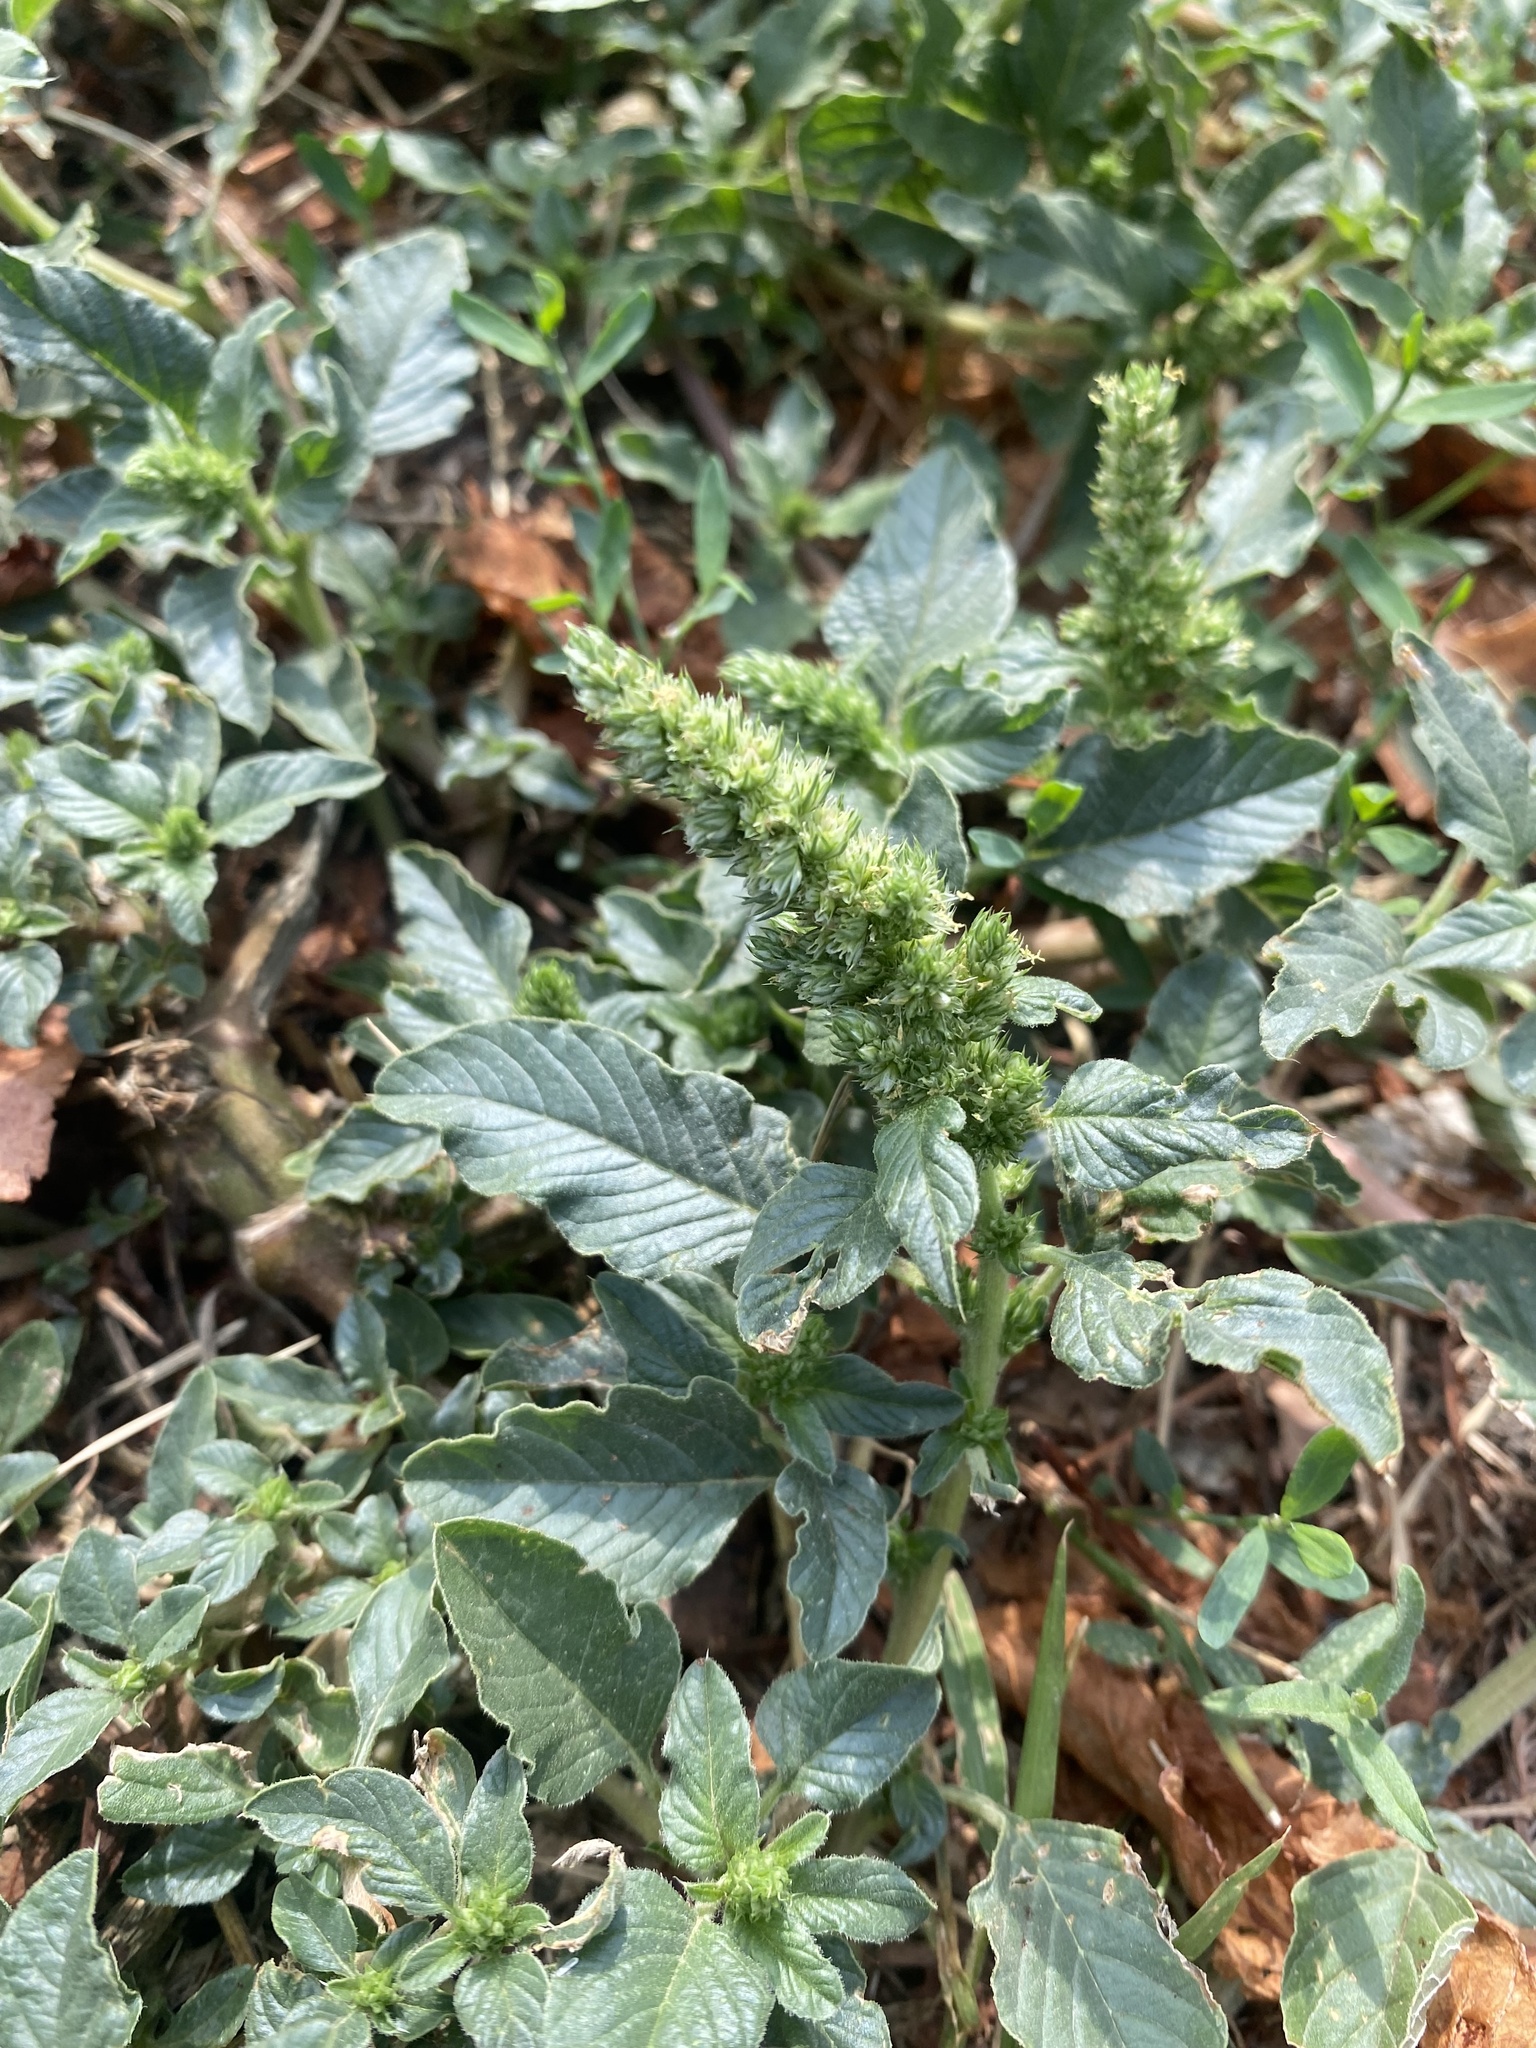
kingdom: Plantae
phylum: Tracheophyta
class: Magnoliopsida
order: Caryophyllales
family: Amaranthaceae
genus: Amaranthus
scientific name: Amaranthus retroflexus
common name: Redroot amaranth
